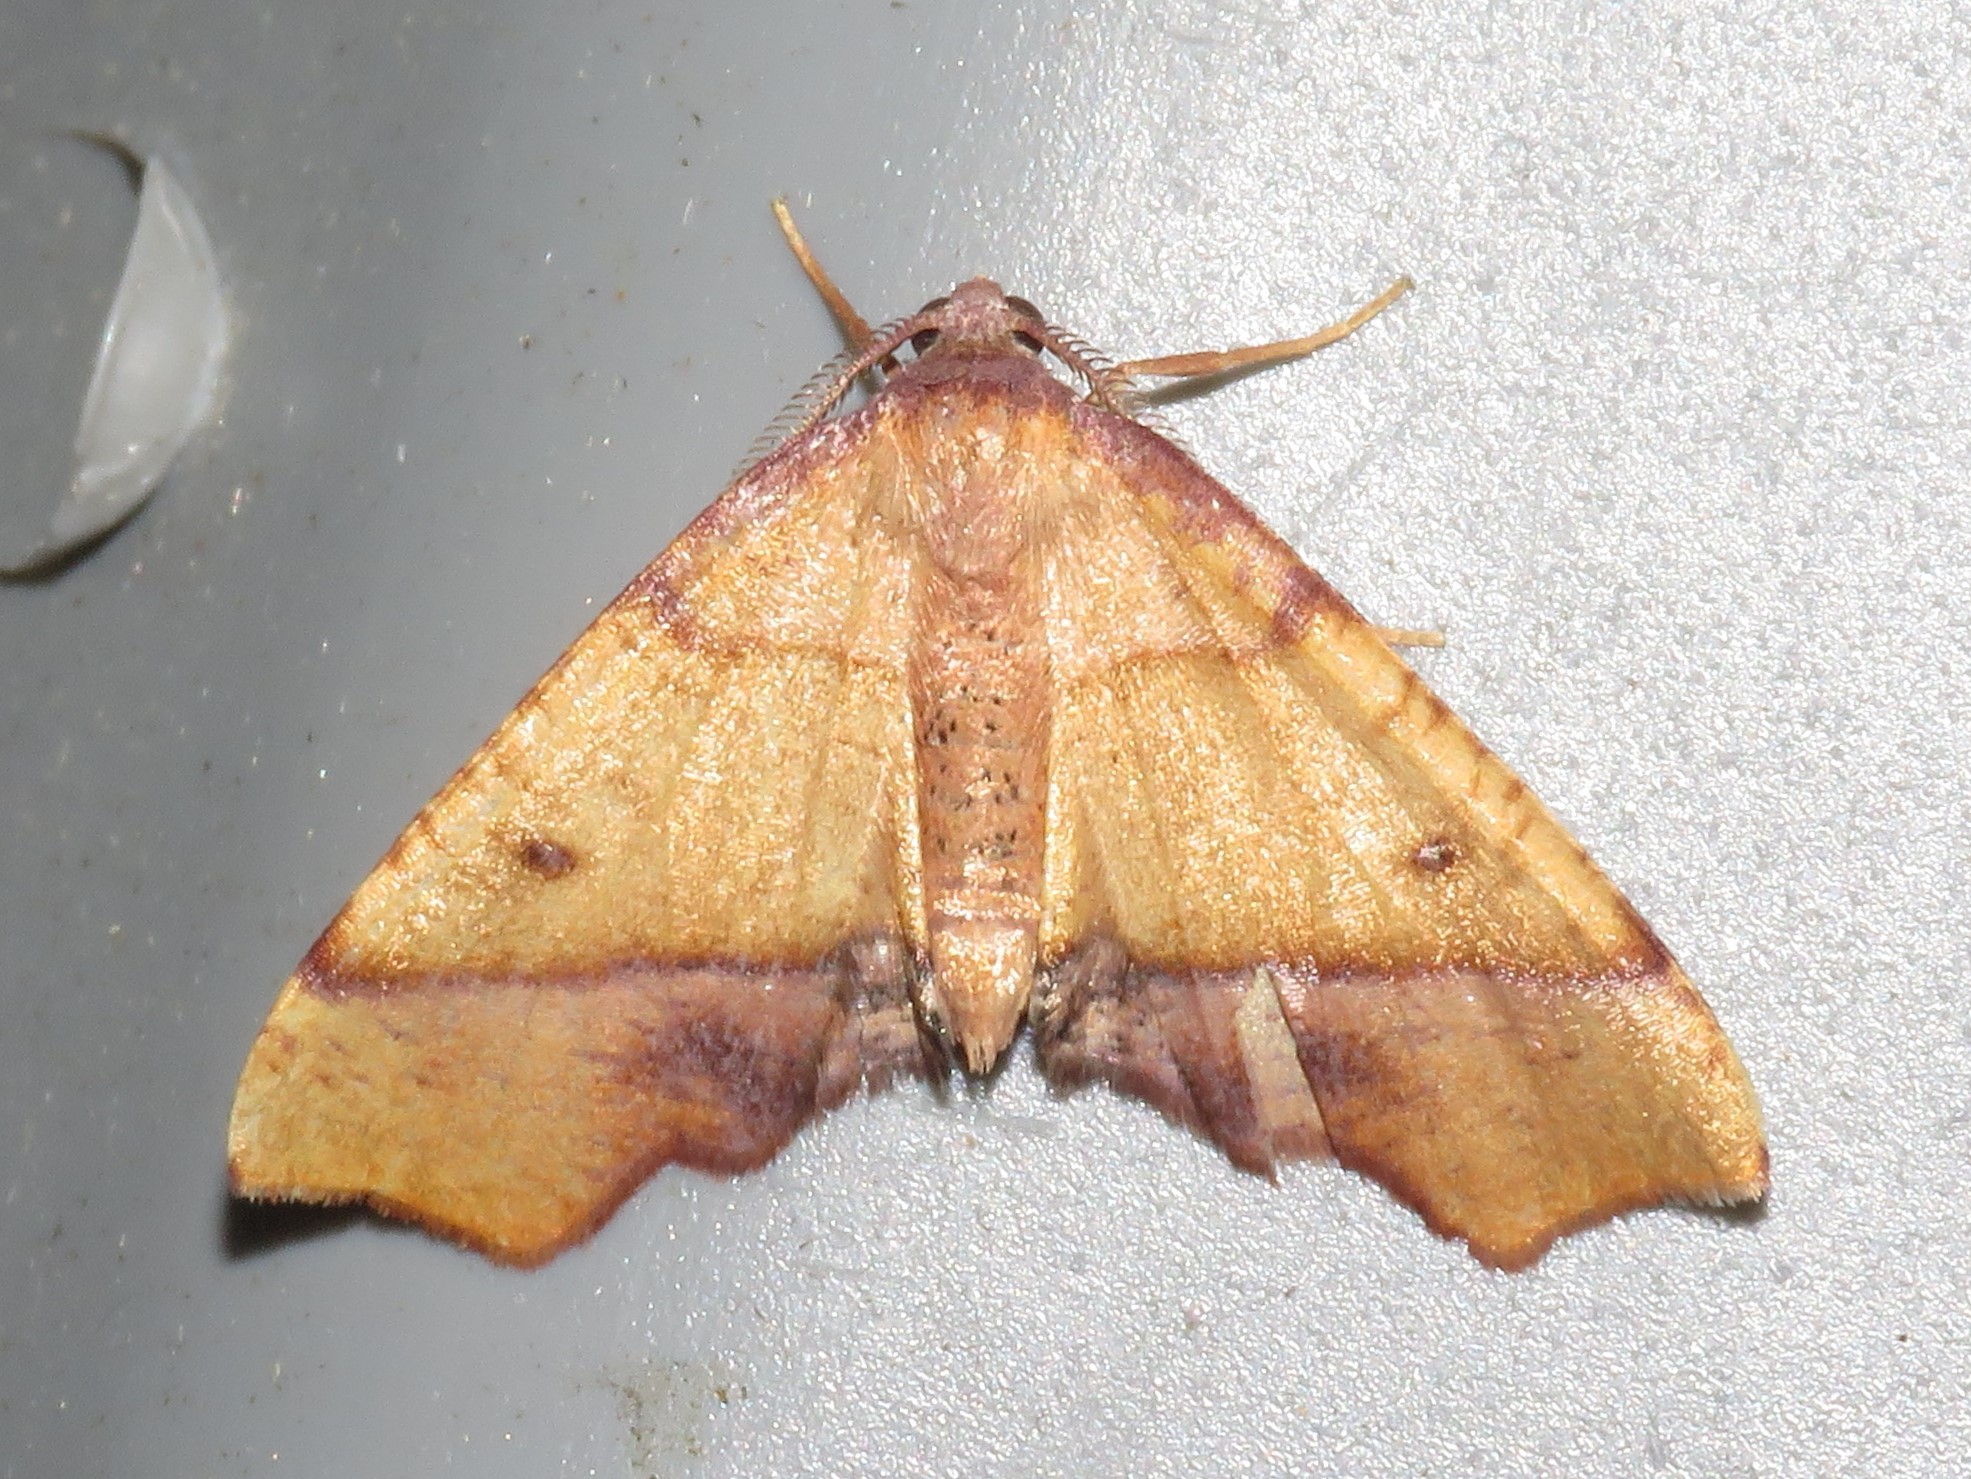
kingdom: Animalia
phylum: Arthropoda
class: Insecta
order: Lepidoptera
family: Geometridae
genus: Plagodis
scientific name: Plagodis phlogosaria
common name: Straight-lined plagodis
